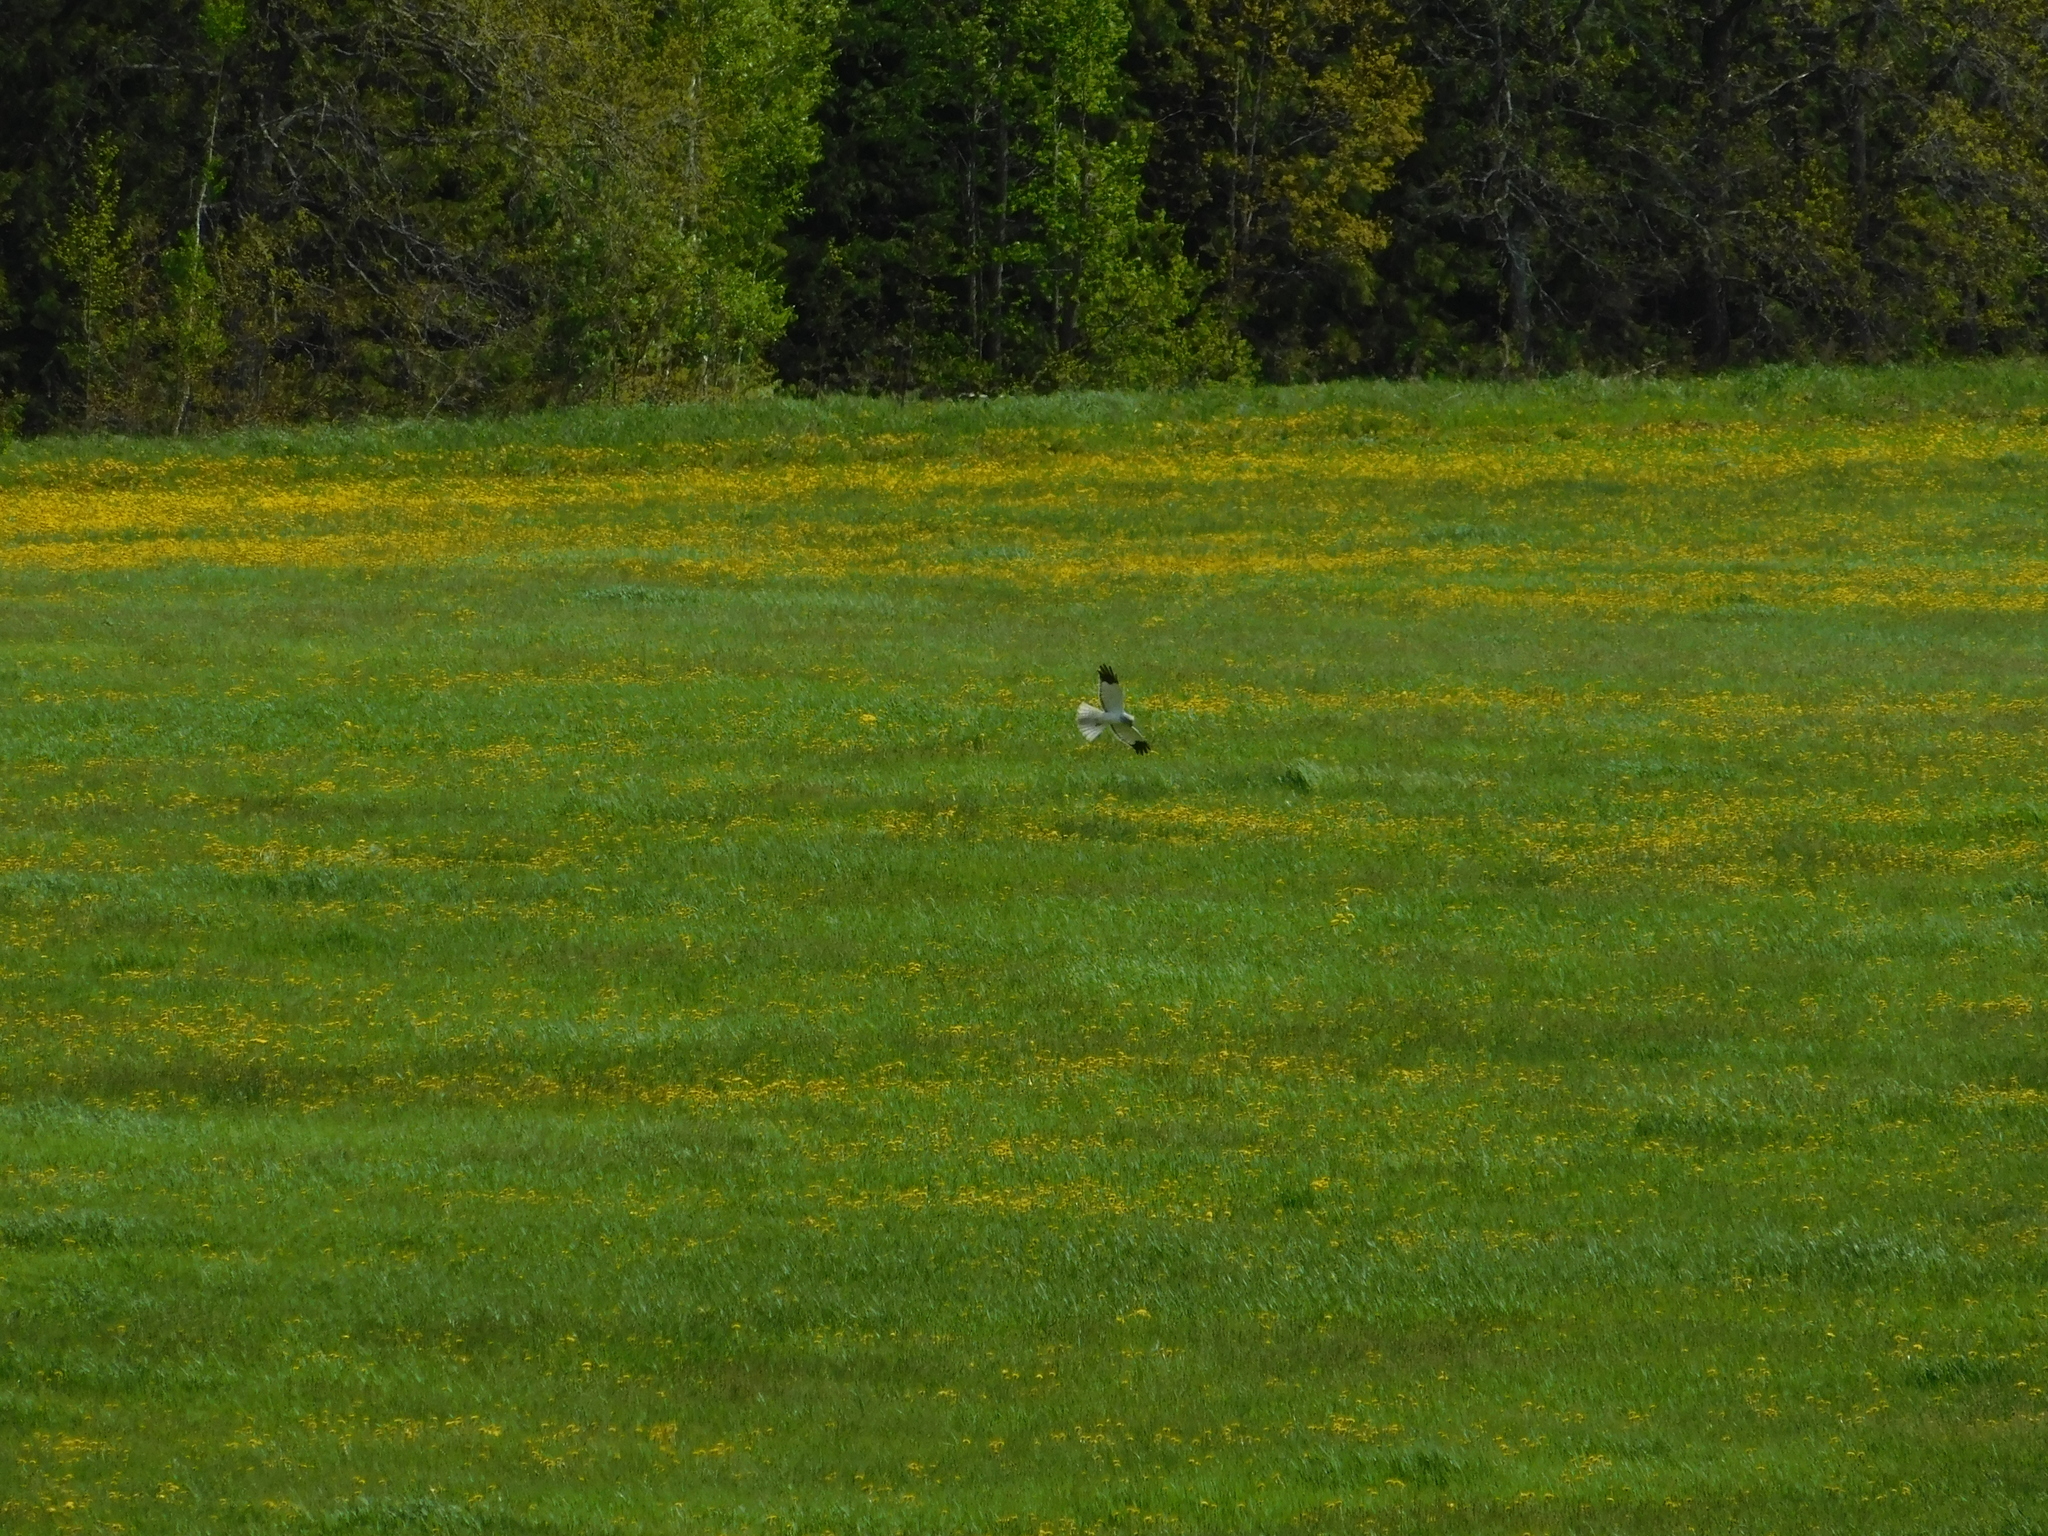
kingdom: Animalia
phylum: Chordata
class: Aves
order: Accipitriformes
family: Accipitridae
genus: Circus
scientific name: Circus cyaneus
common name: Hen harrier
